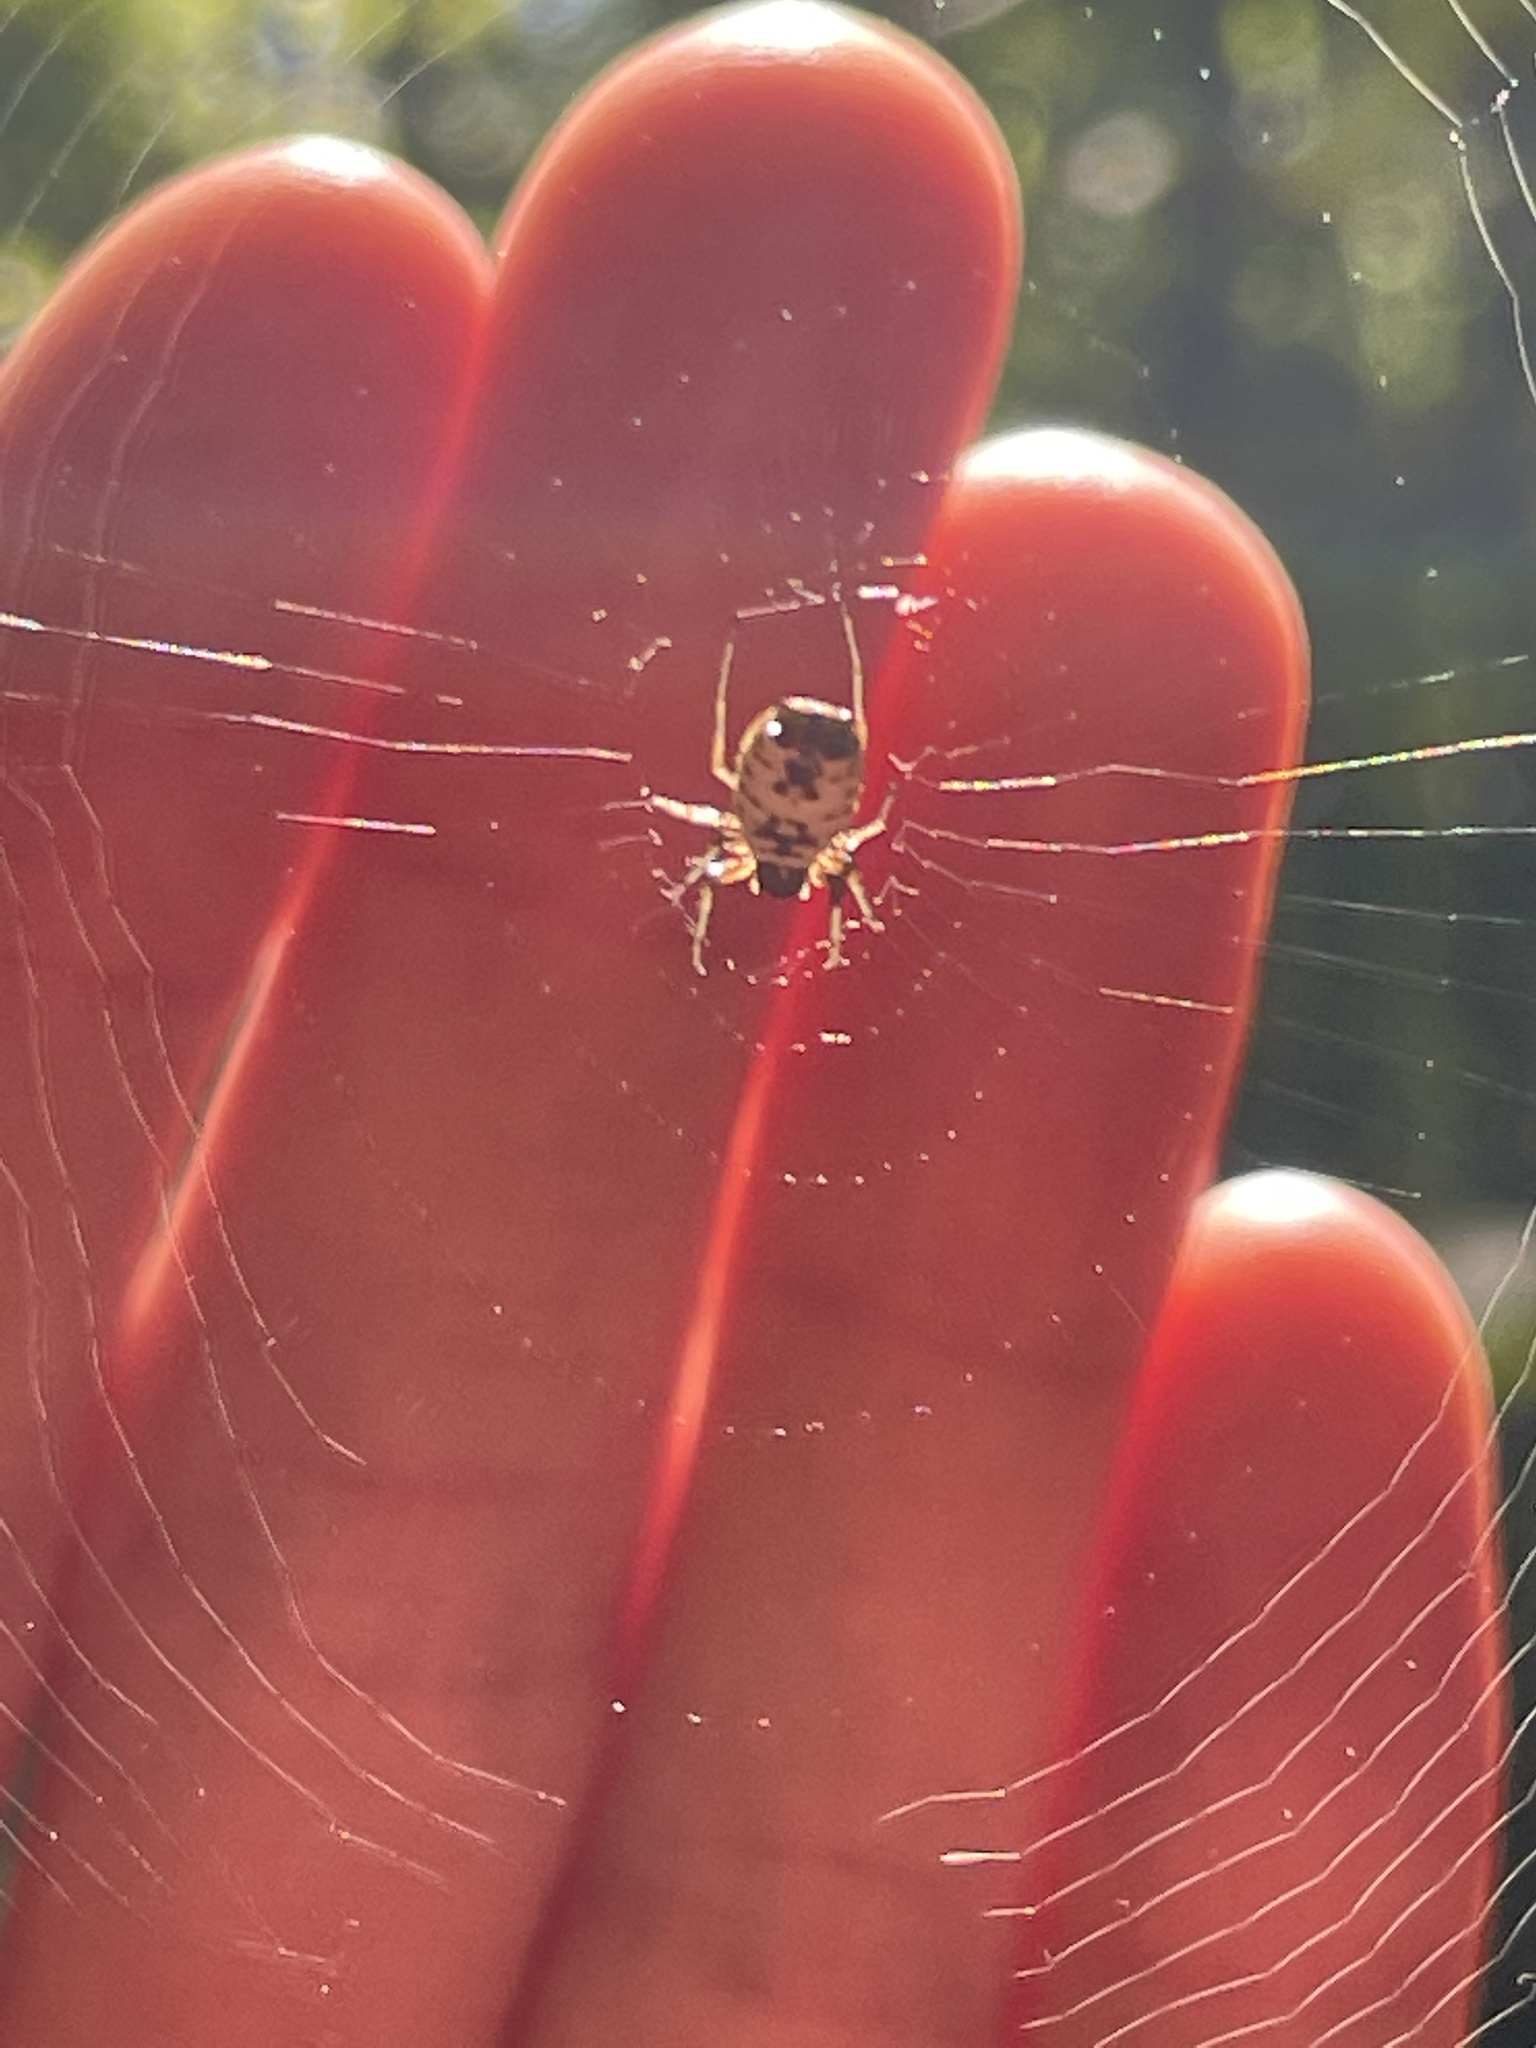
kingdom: Animalia
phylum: Arthropoda
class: Arachnida
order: Araneae
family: Araneidae
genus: Micrathena
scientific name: Micrathena mitrata
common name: Orb weavers
